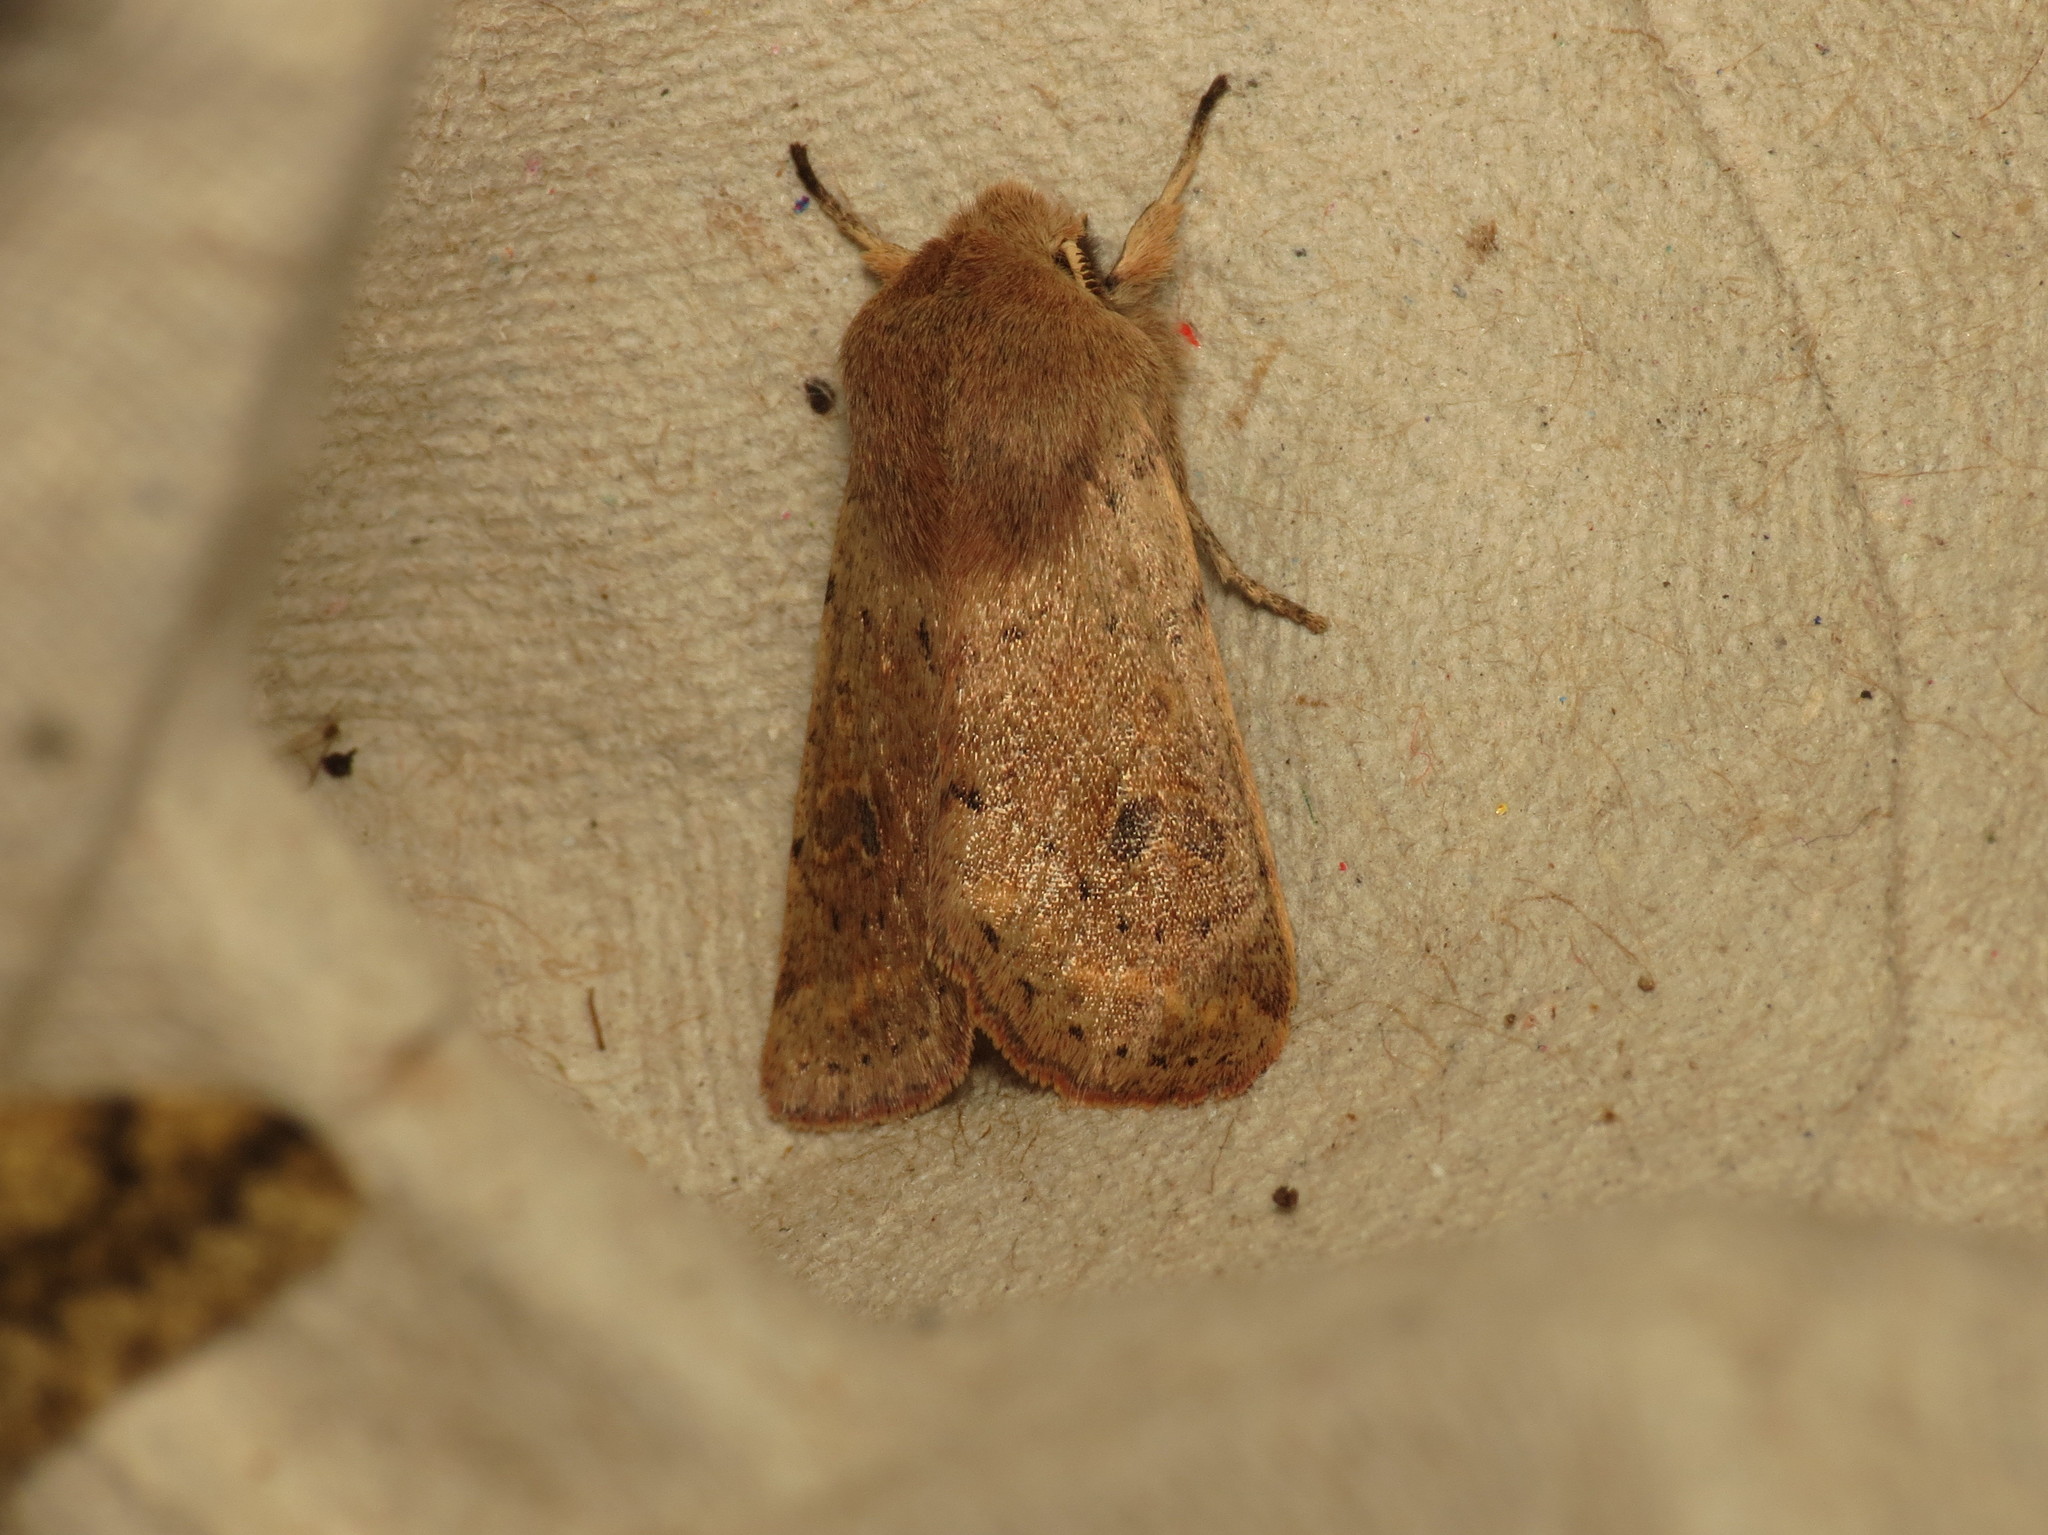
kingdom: Animalia
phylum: Arthropoda
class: Insecta
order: Lepidoptera
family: Noctuidae
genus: Orthosia
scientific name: Orthosia cruda
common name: Small quaker
